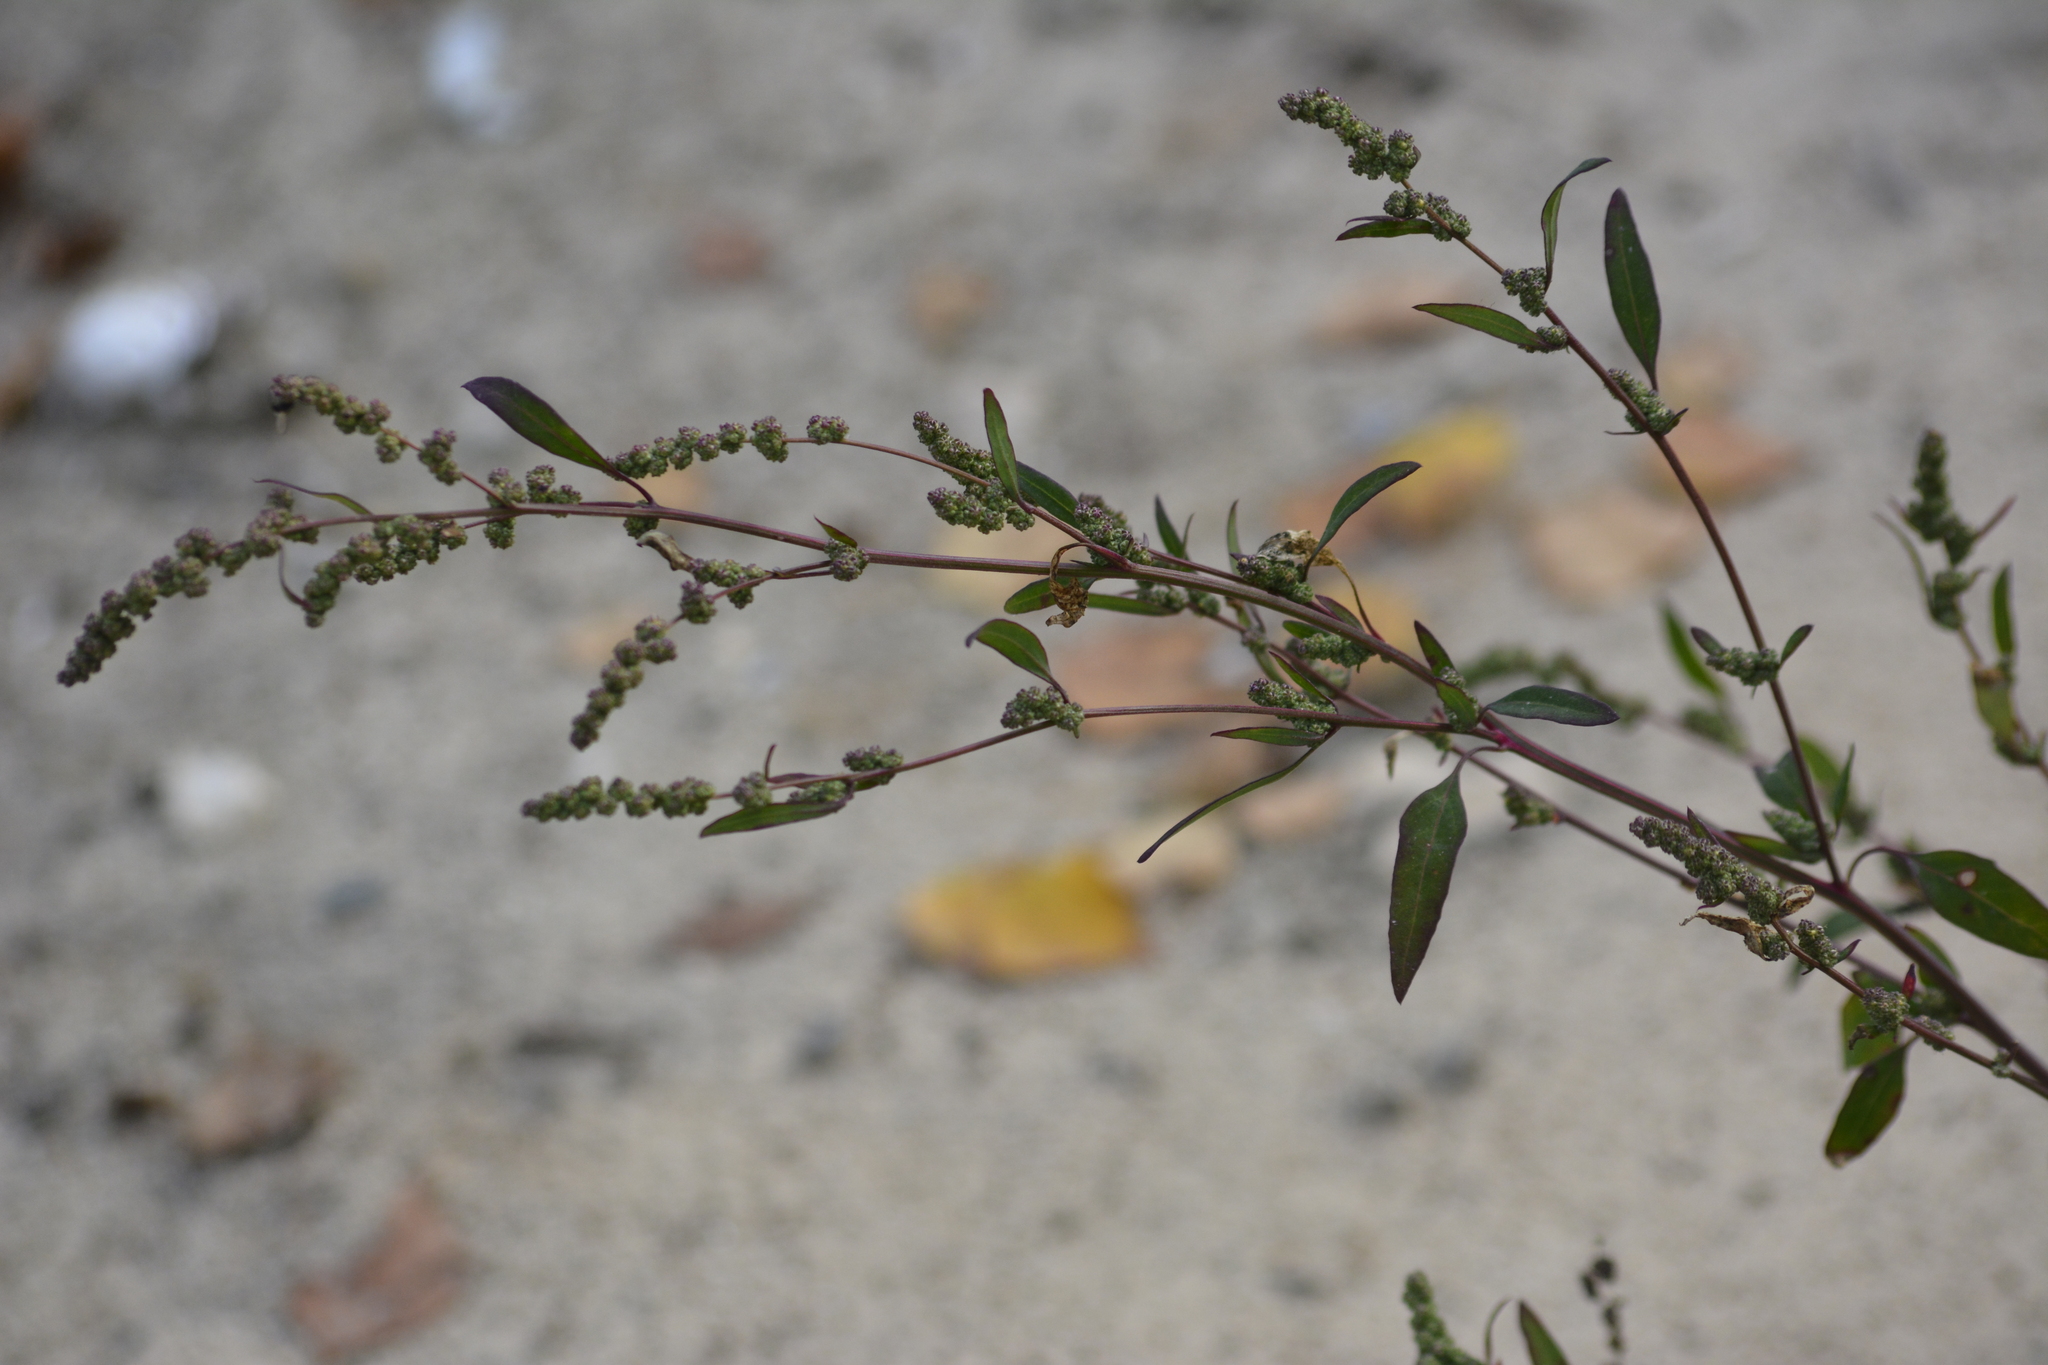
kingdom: Plantae
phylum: Tracheophyta
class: Magnoliopsida
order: Caryophyllales
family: Amaranthaceae
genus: Chenopodium
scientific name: Chenopodium betaceum
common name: Striped goosefoot
